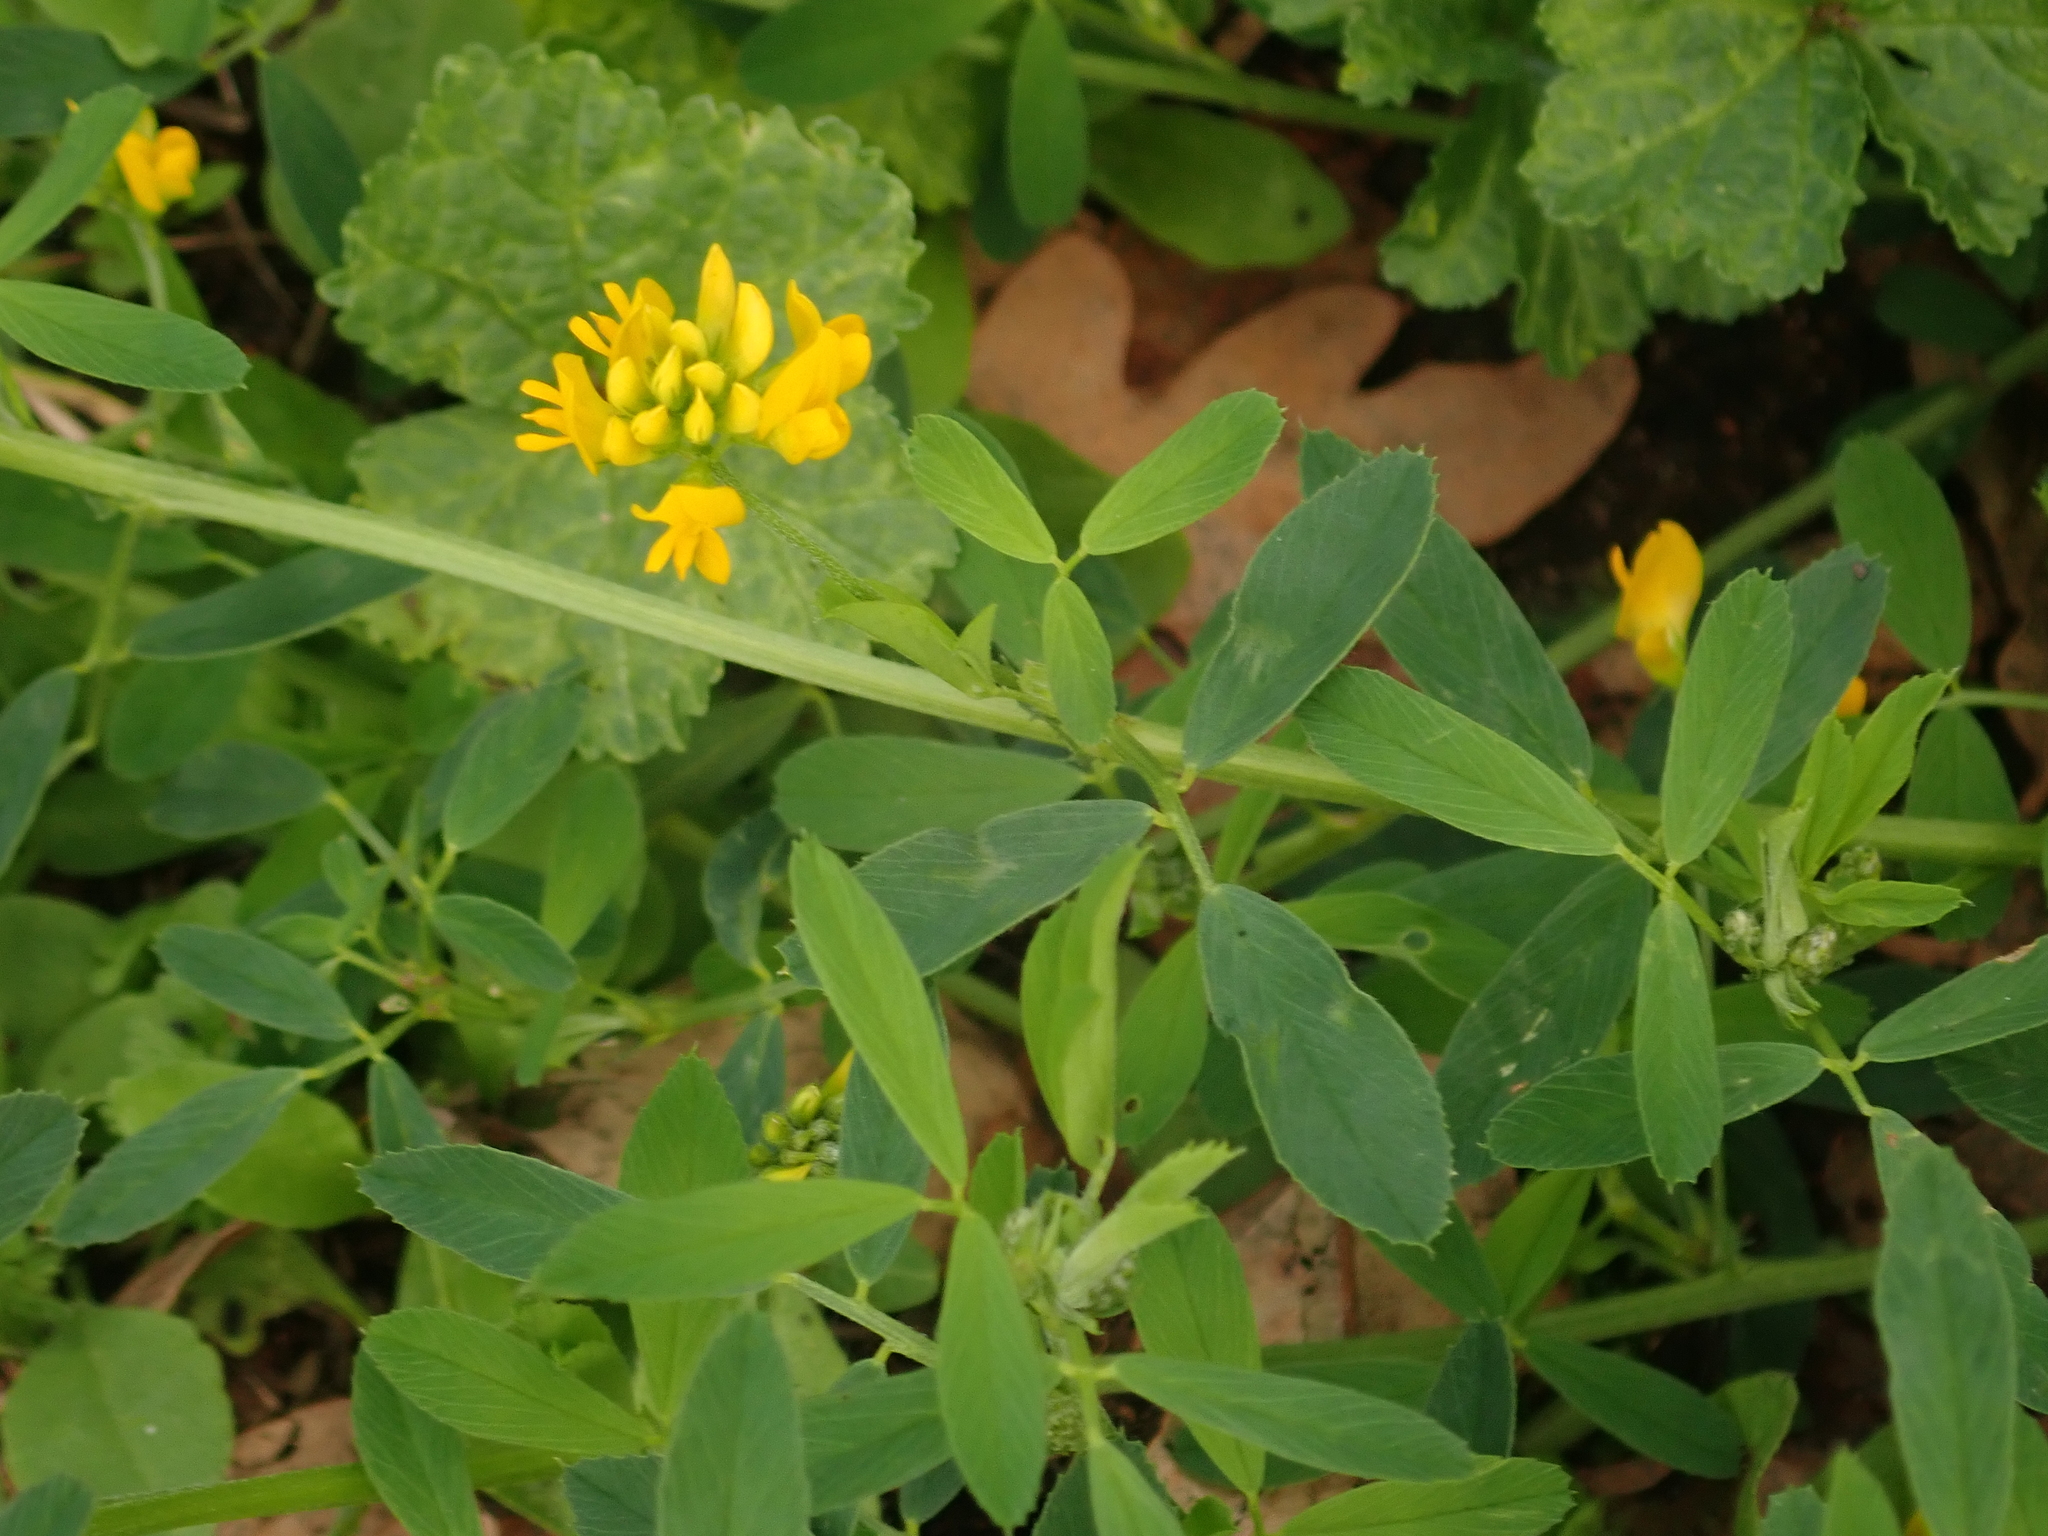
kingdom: Plantae
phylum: Tracheophyta
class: Magnoliopsida
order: Fabales
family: Fabaceae
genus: Medicago
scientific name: Medicago falcata
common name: Sickle medick
